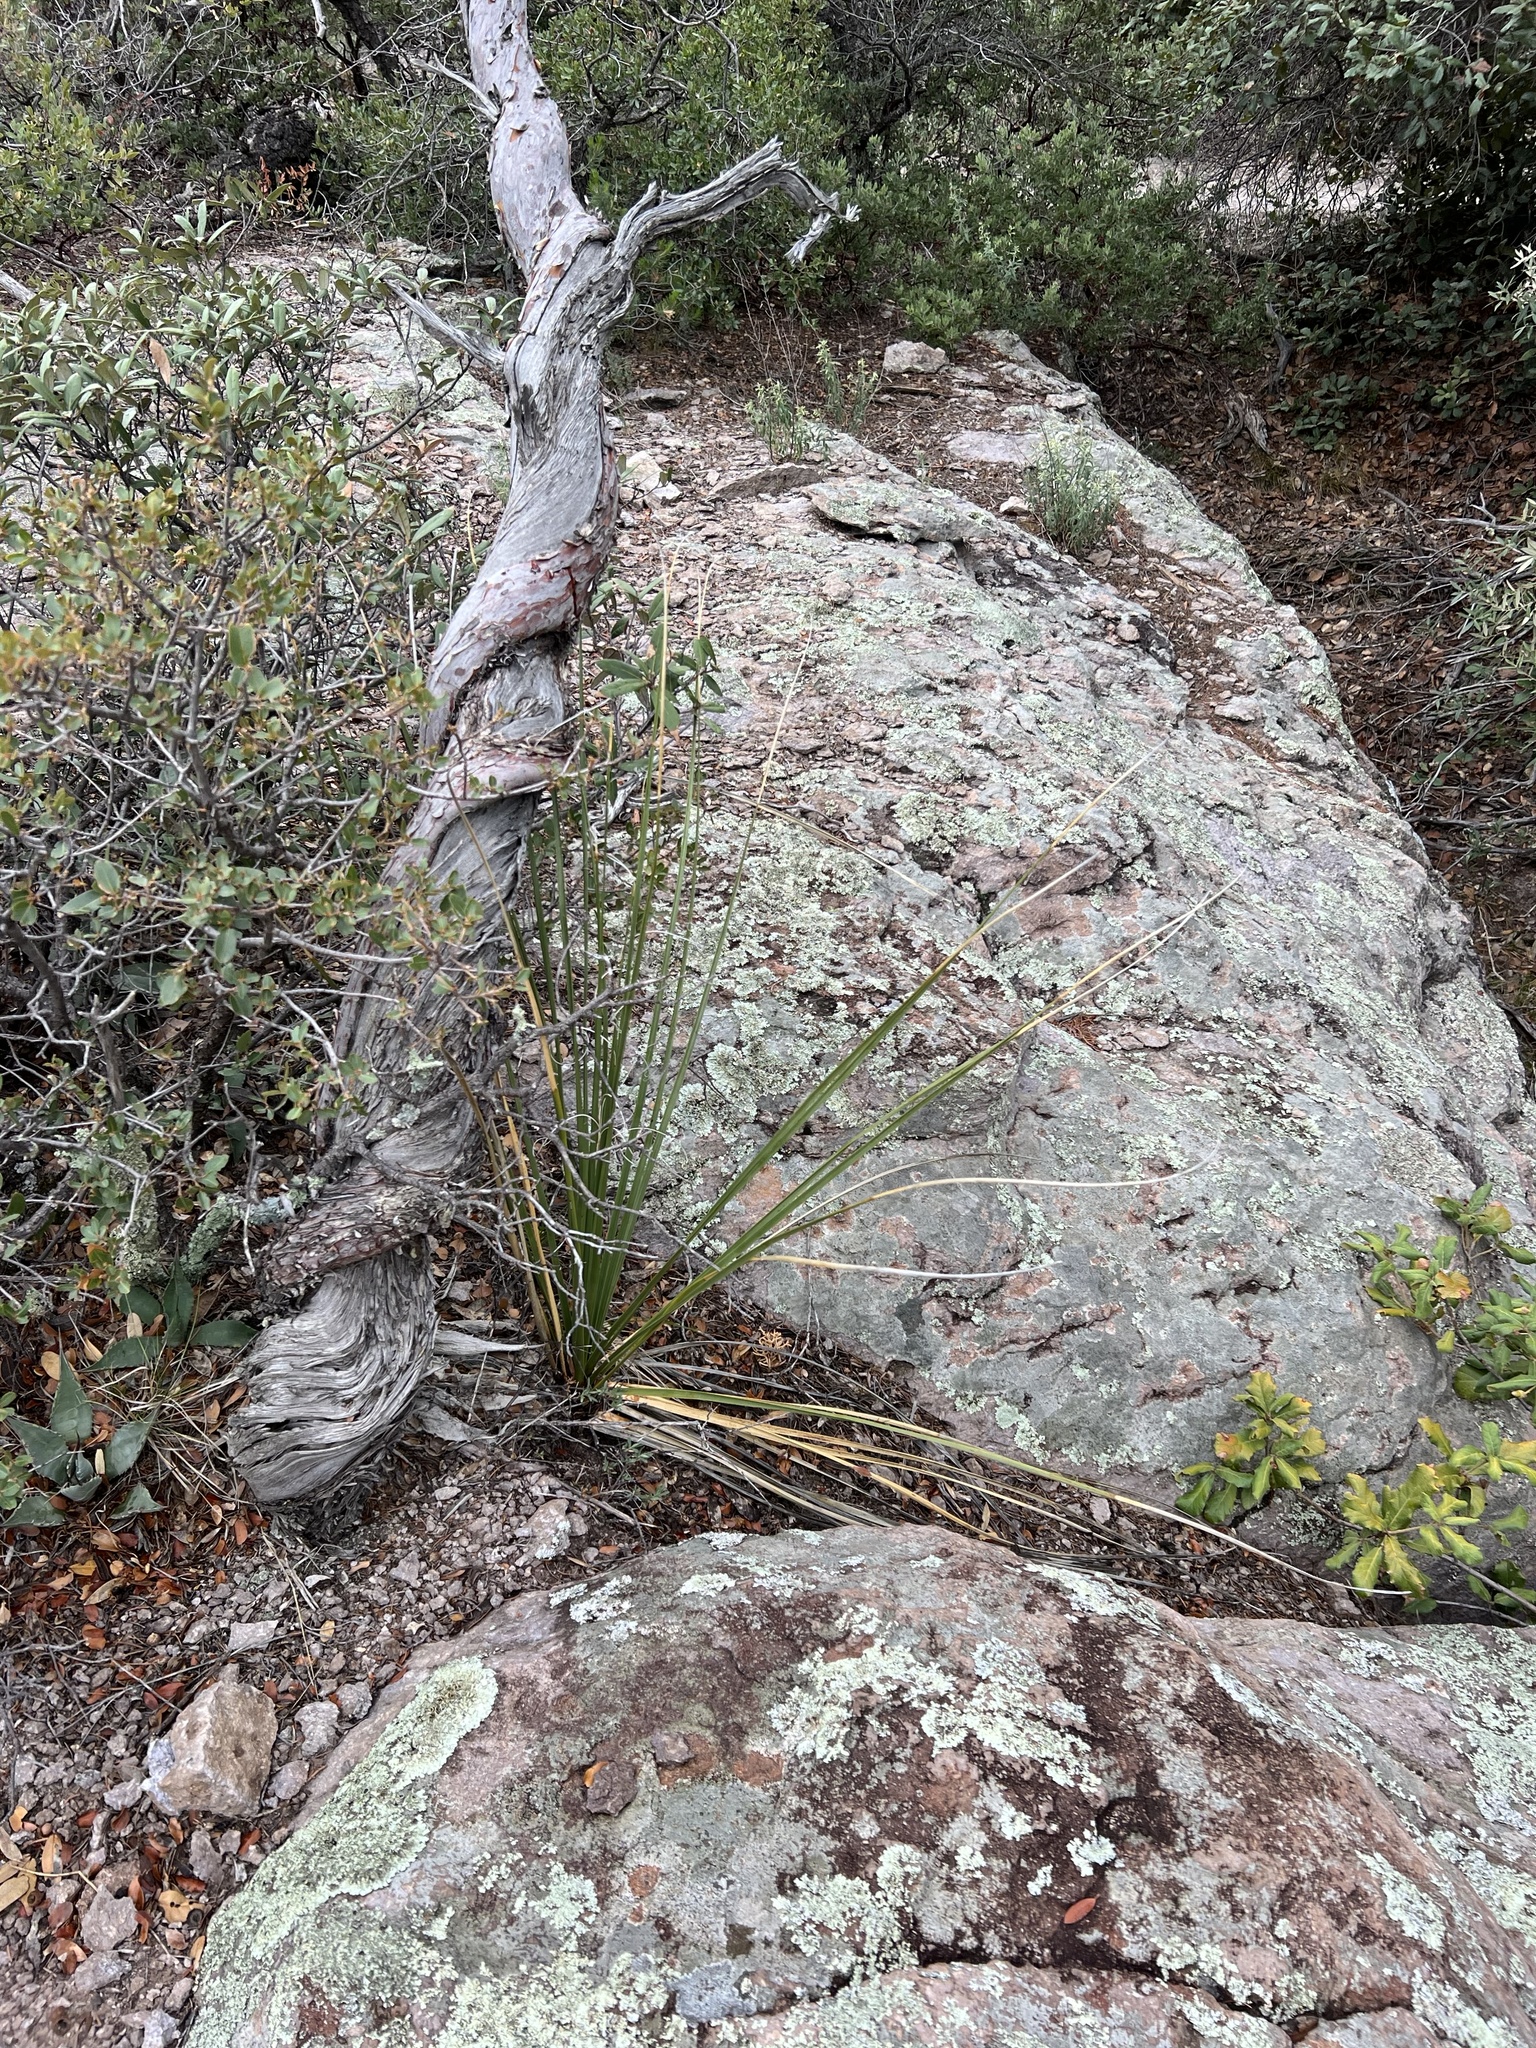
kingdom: Plantae
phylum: Tracheophyta
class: Liliopsida
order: Asparagales
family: Asparagaceae
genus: Nolina
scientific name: Nolina microcarpa
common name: Bear-grass
